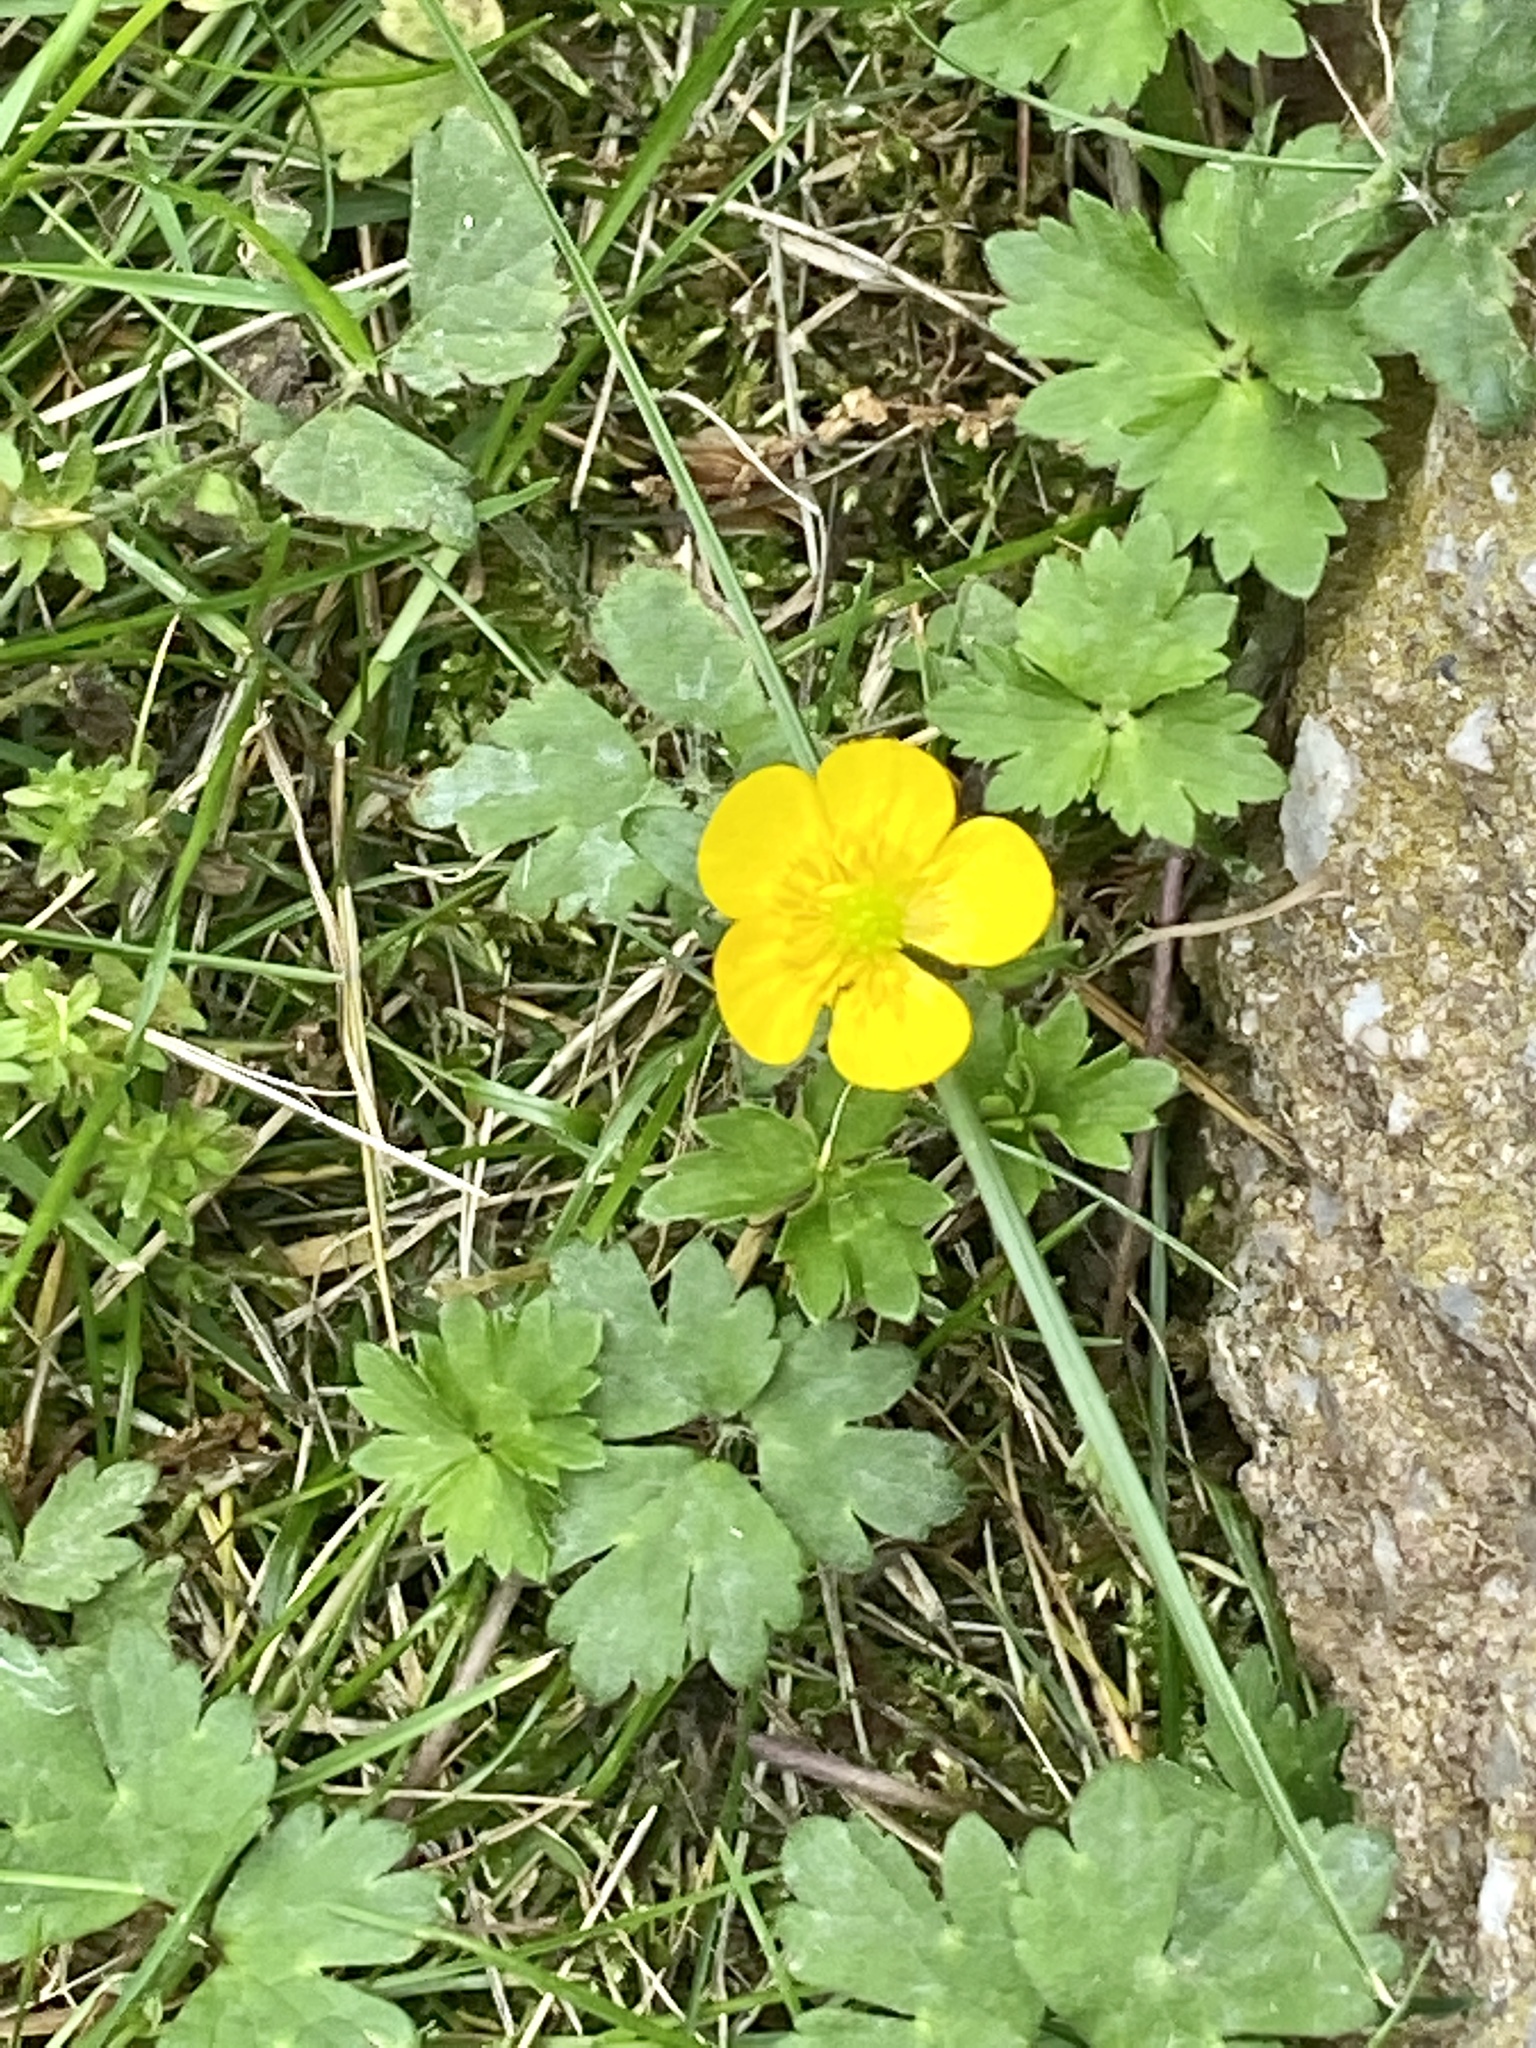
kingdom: Plantae
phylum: Tracheophyta
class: Magnoliopsida
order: Ranunculales
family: Ranunculaceae
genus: Ranunculus
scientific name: Ranunculus repens
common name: Creeping buttercup
